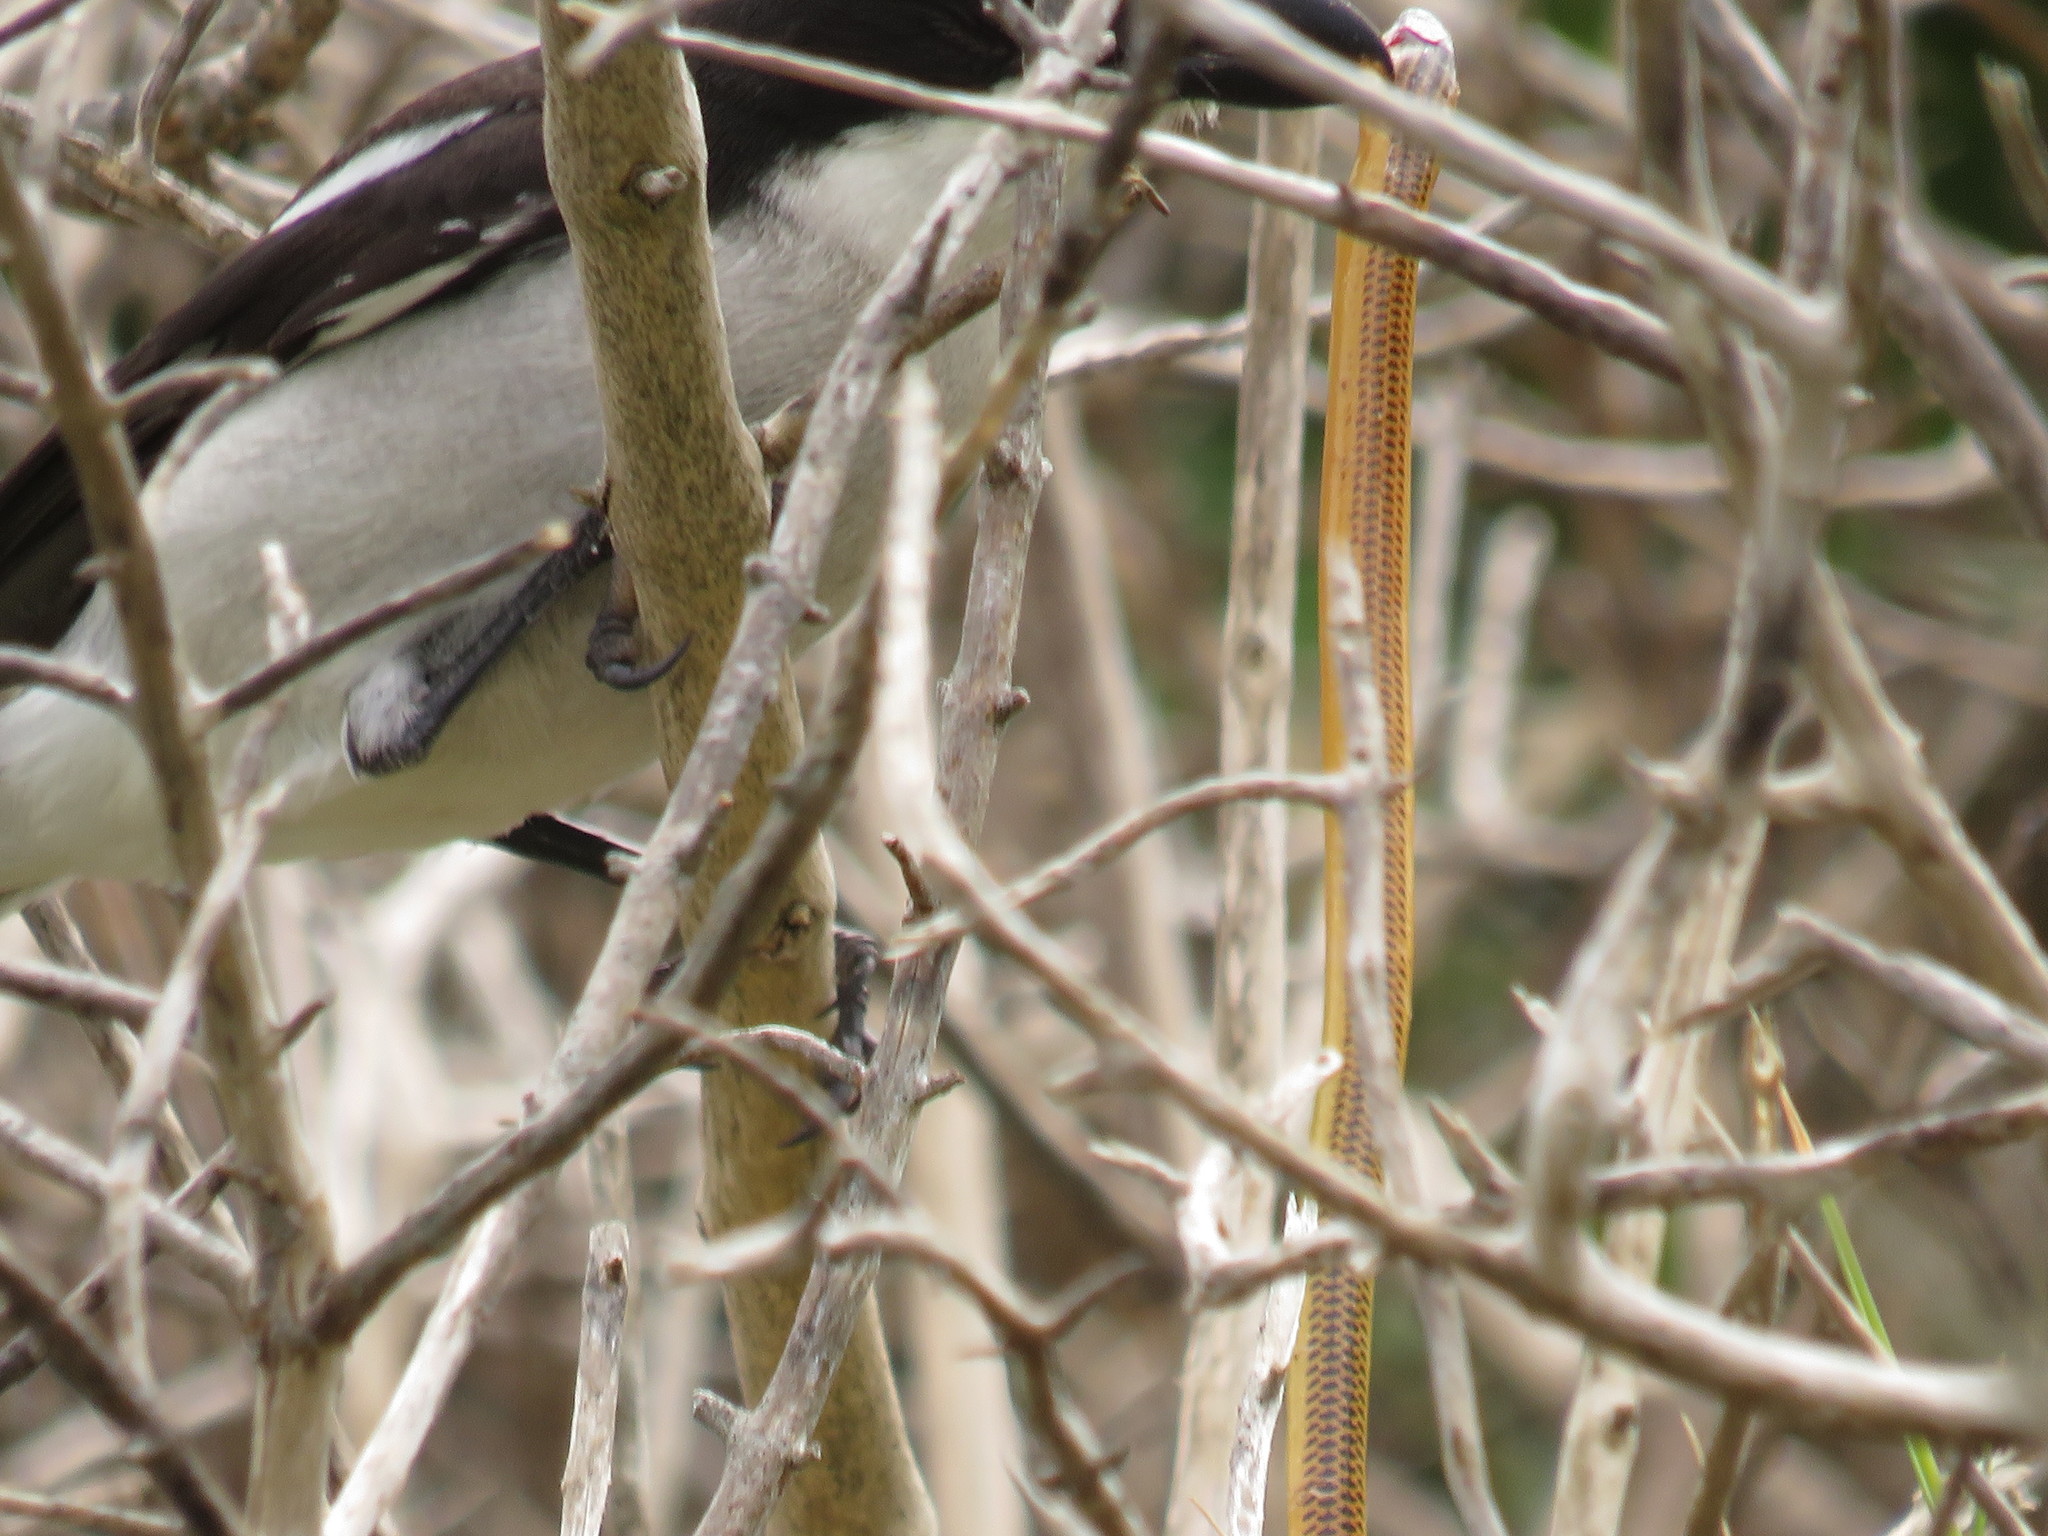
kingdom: Animalia
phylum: Chordata
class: Squamata
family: Scincidae
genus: Acontias
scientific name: Acontias meleagris
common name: Cape legless skink
